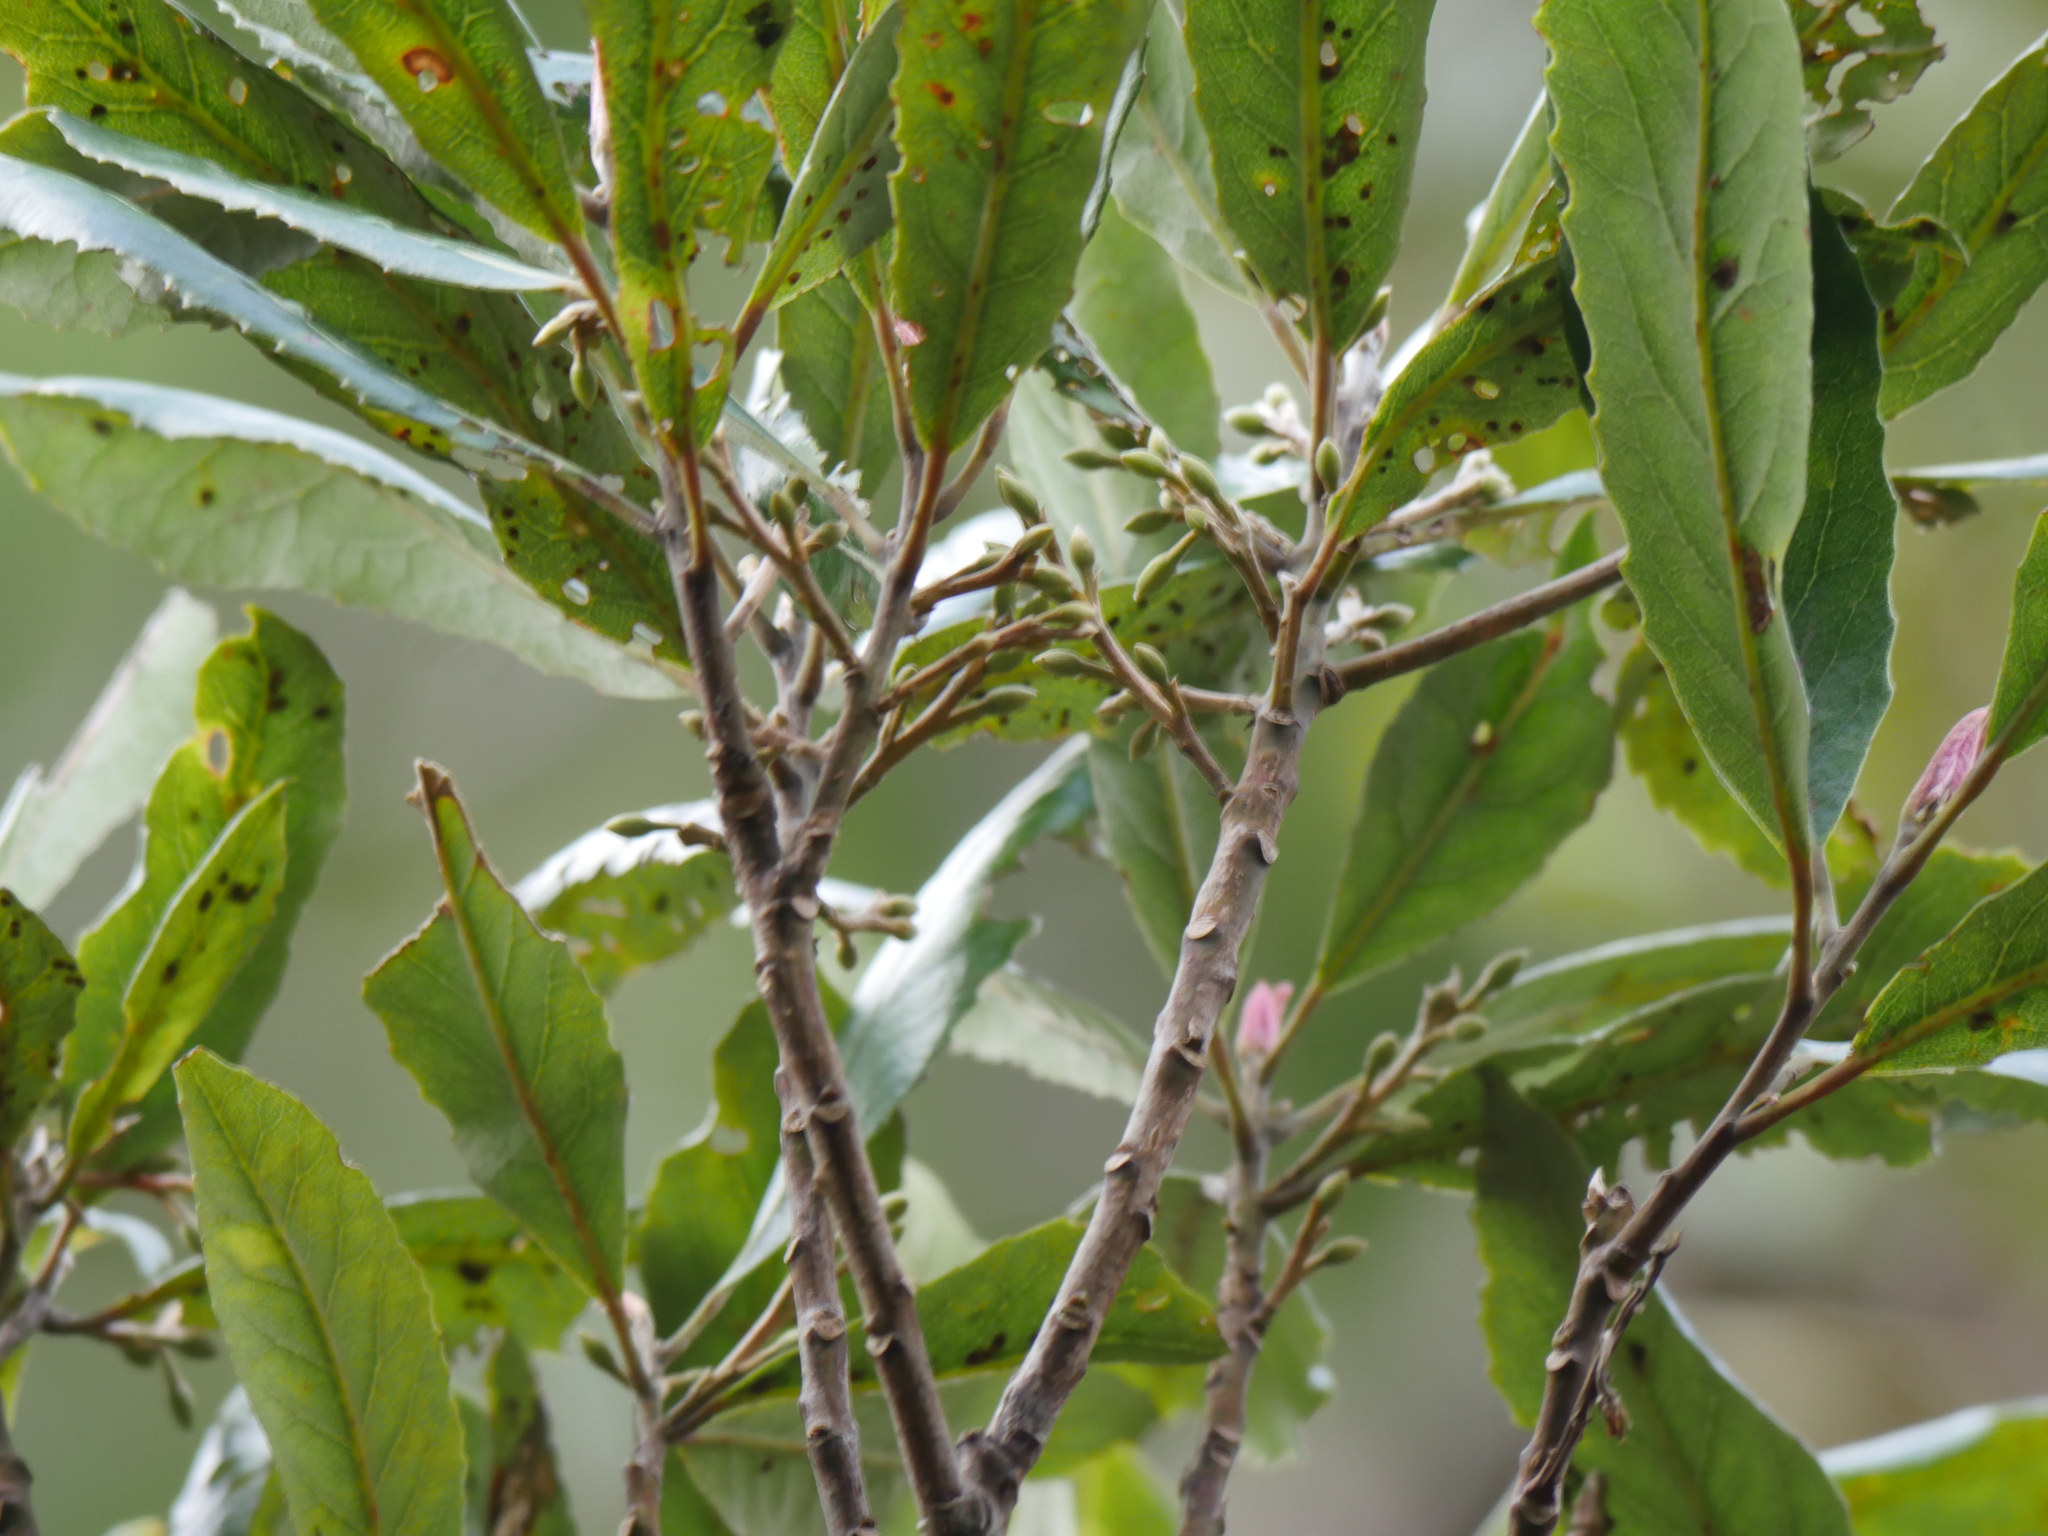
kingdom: Plantae
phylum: Tracheophyta
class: Magnoliopsida
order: Oxalidales
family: Elaeocarpaceae
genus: Elaeocarpus
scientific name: Elaeocarpus dentatus
